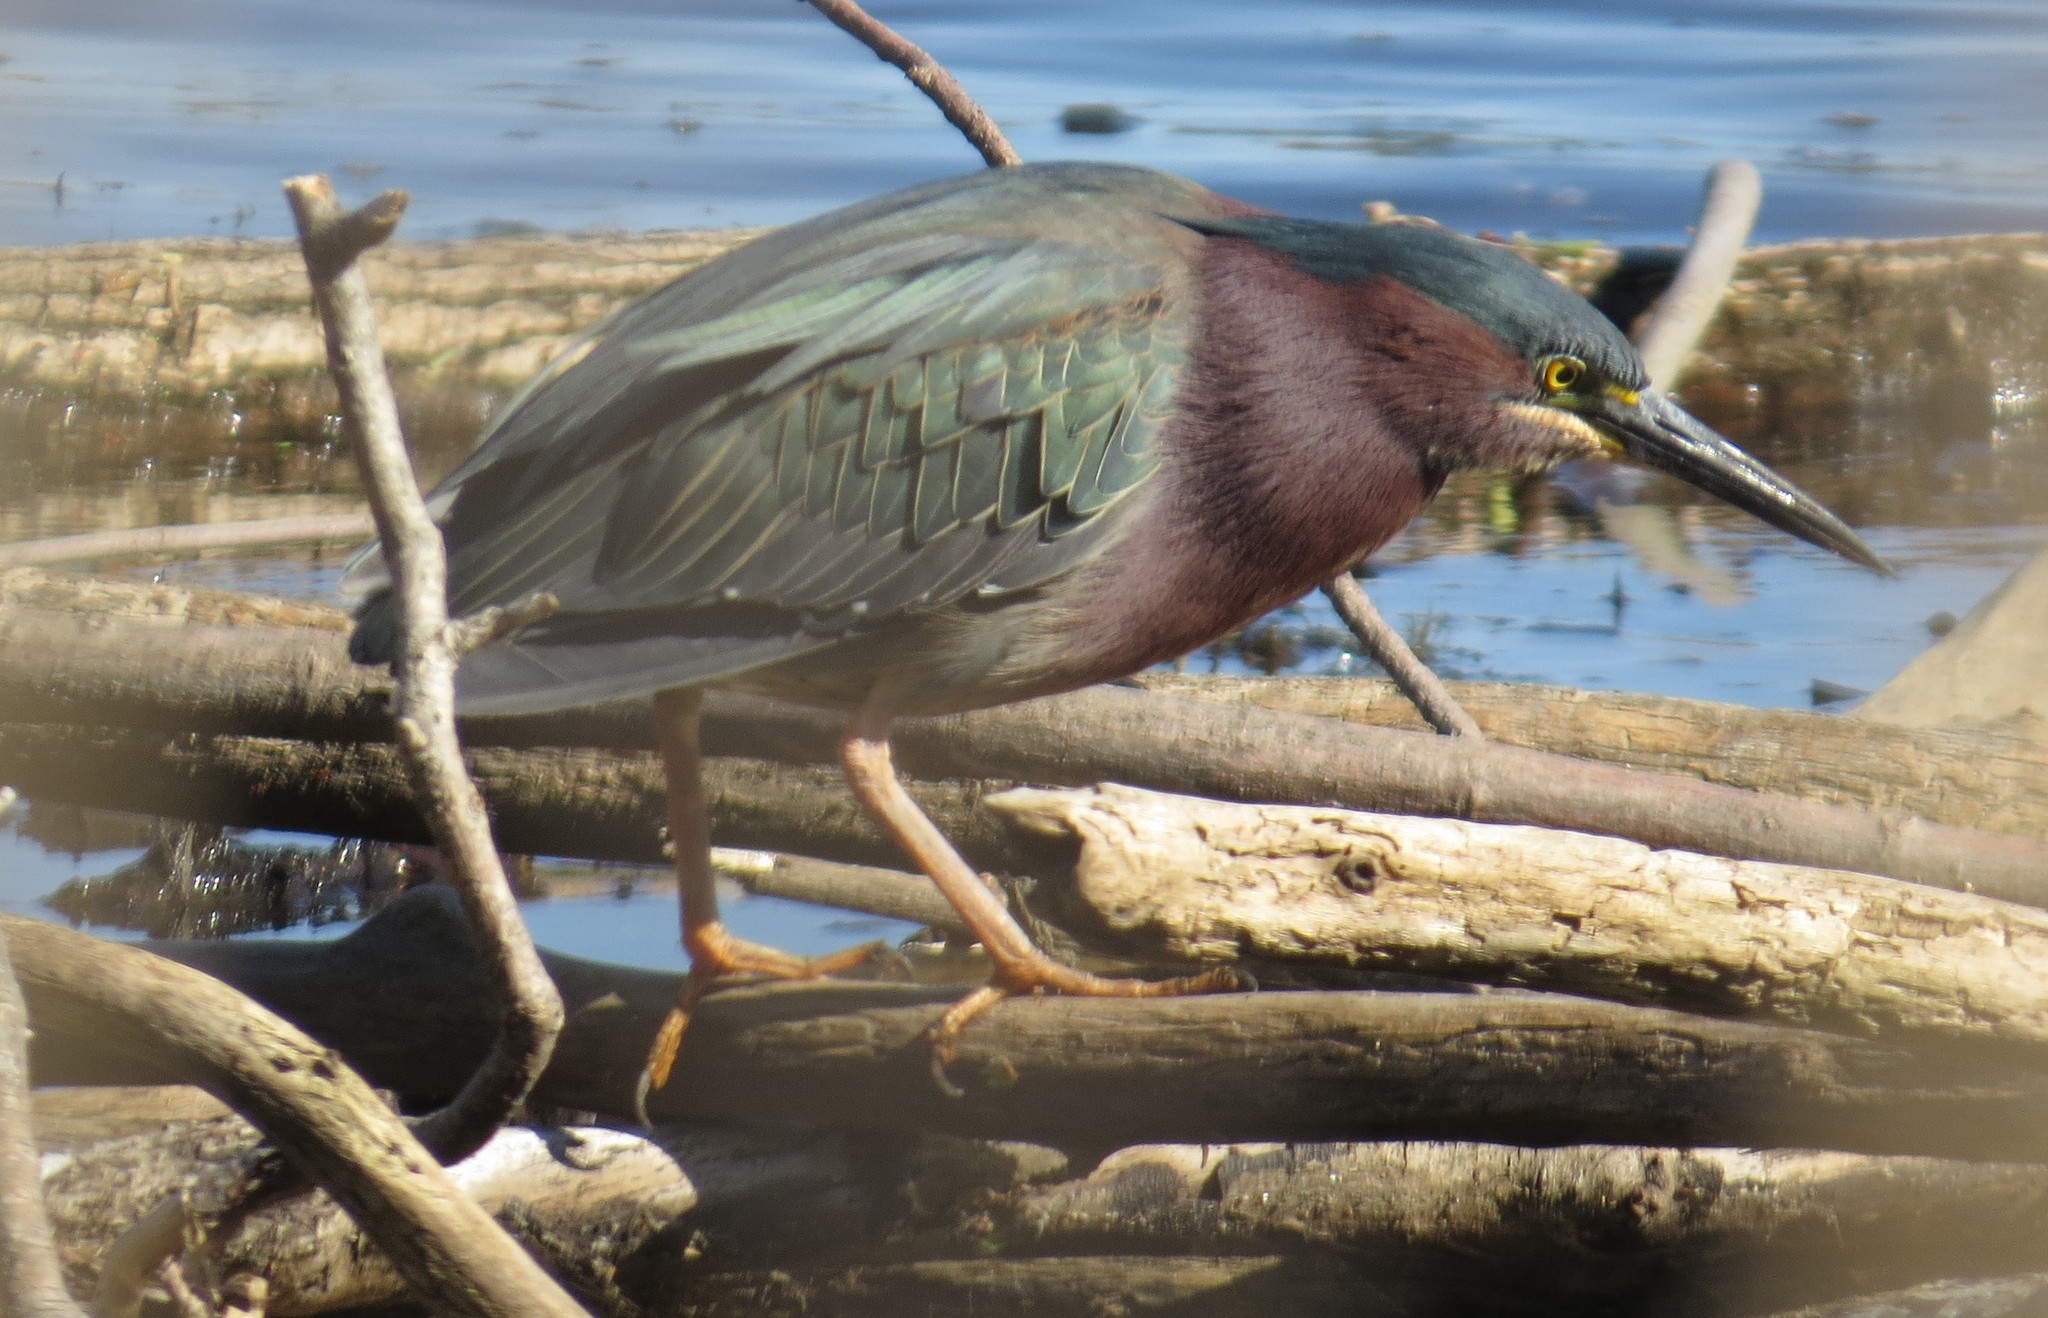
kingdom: Animalia
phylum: Chordata
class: Aves
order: Pelecaniformes
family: Ardeidae
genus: Butorides
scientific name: Butorides virescens
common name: Green heron
